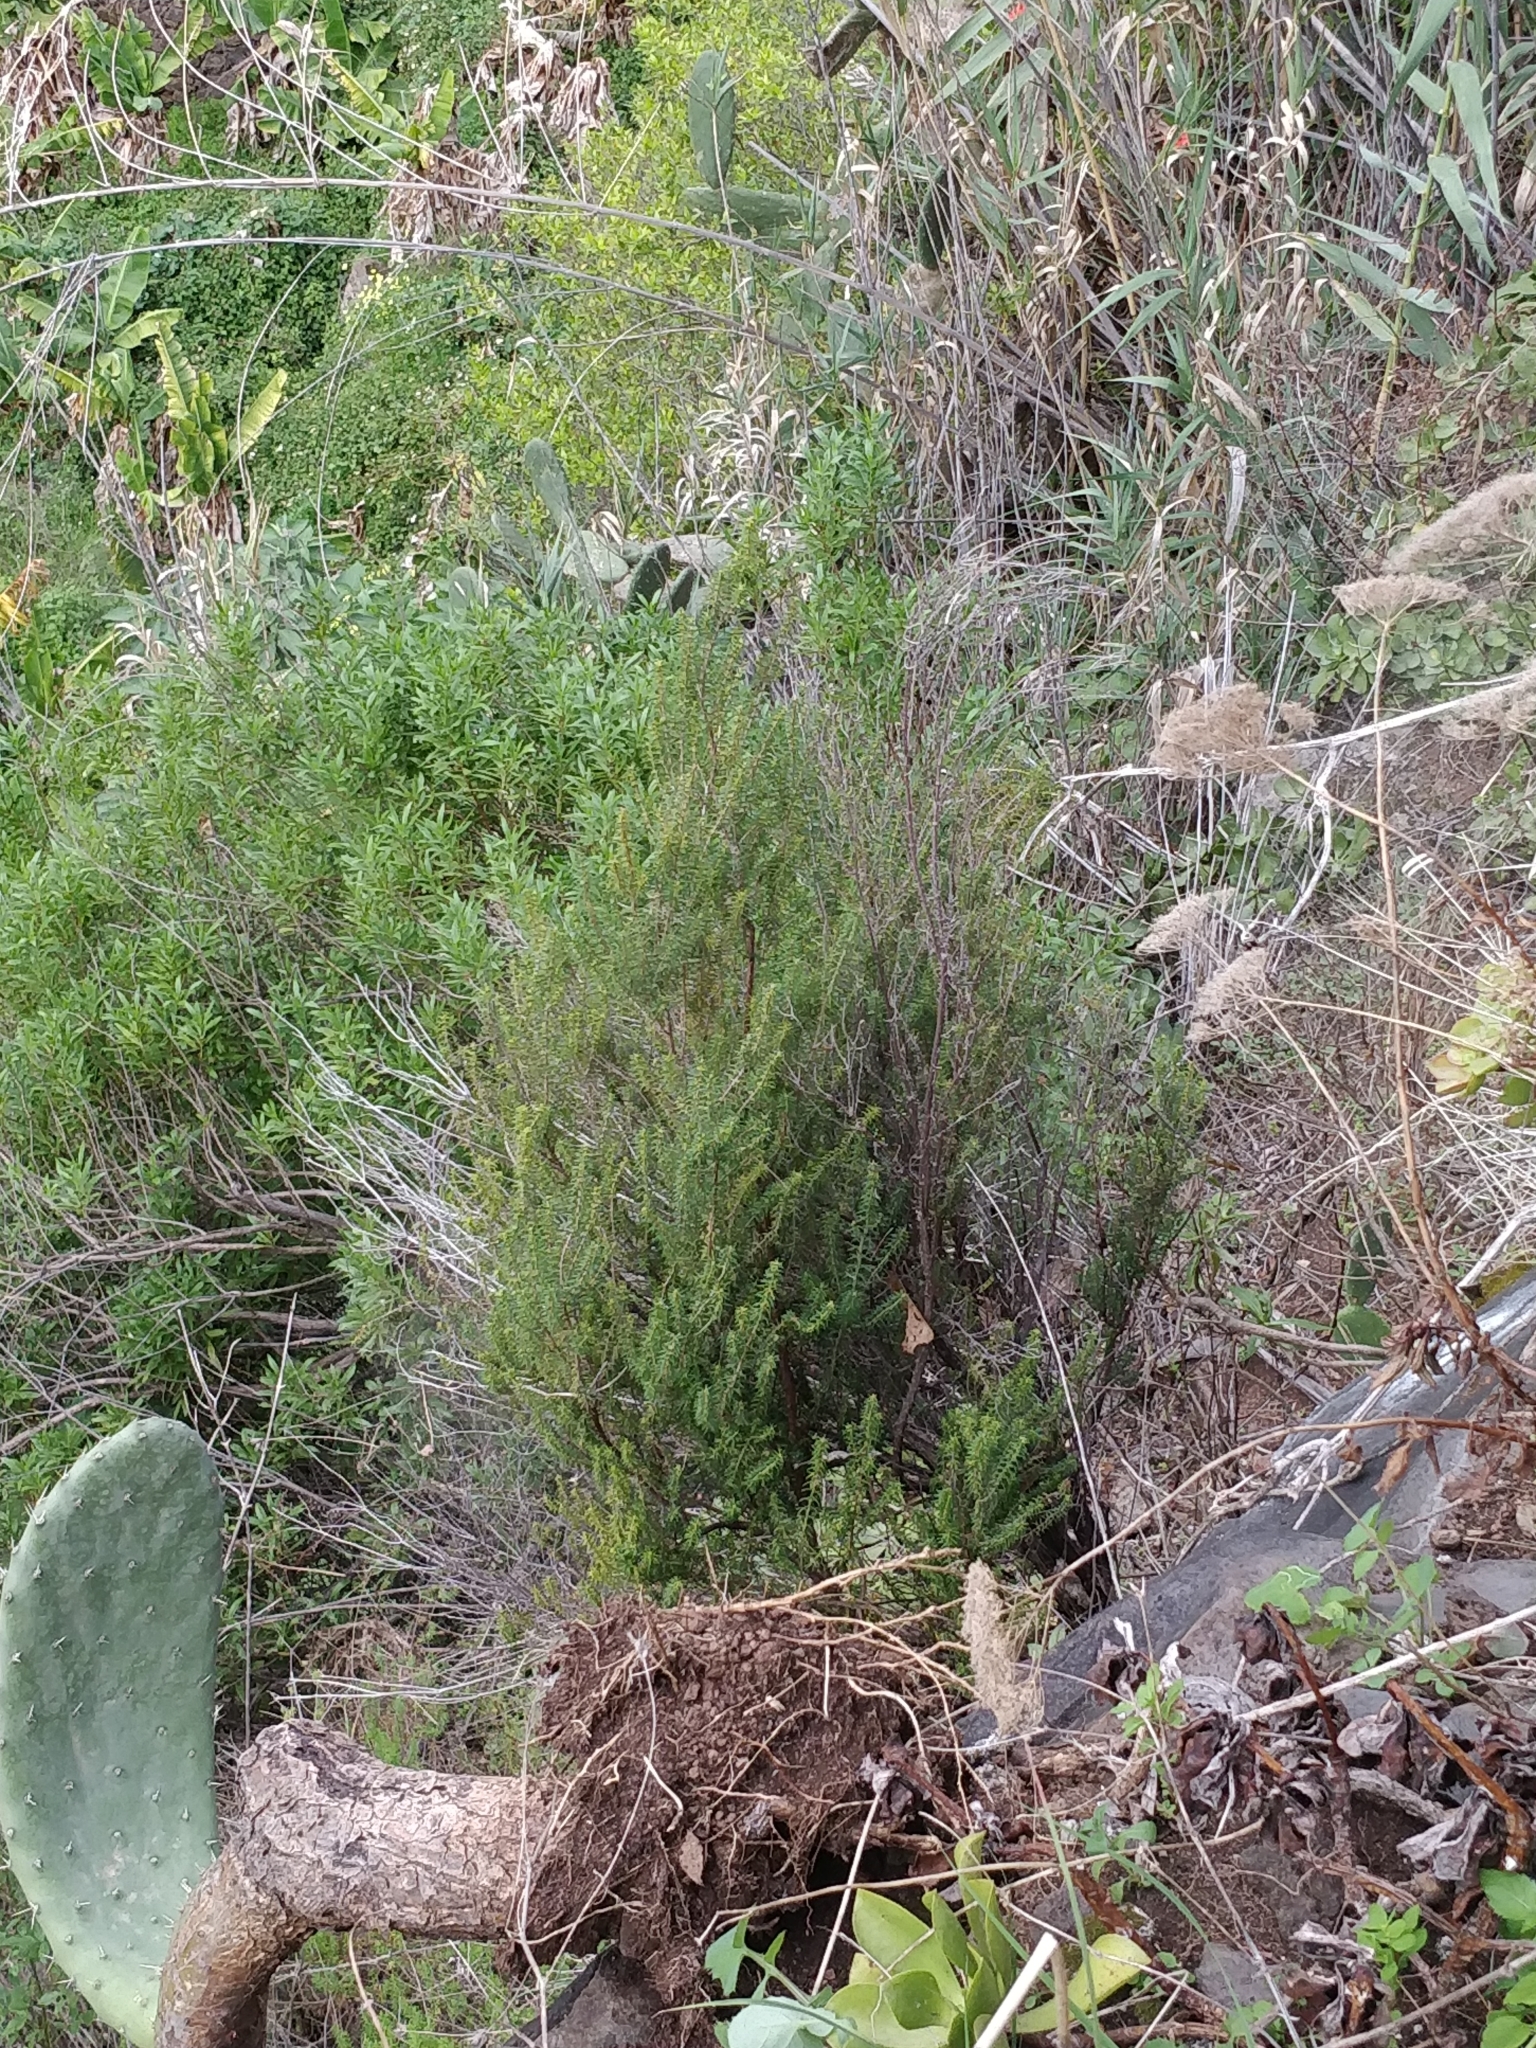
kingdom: Plantae
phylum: Tracheophyta
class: Magnoliopsida
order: Ericales
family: Ericaceae
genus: Erica
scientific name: Erica platycodon
